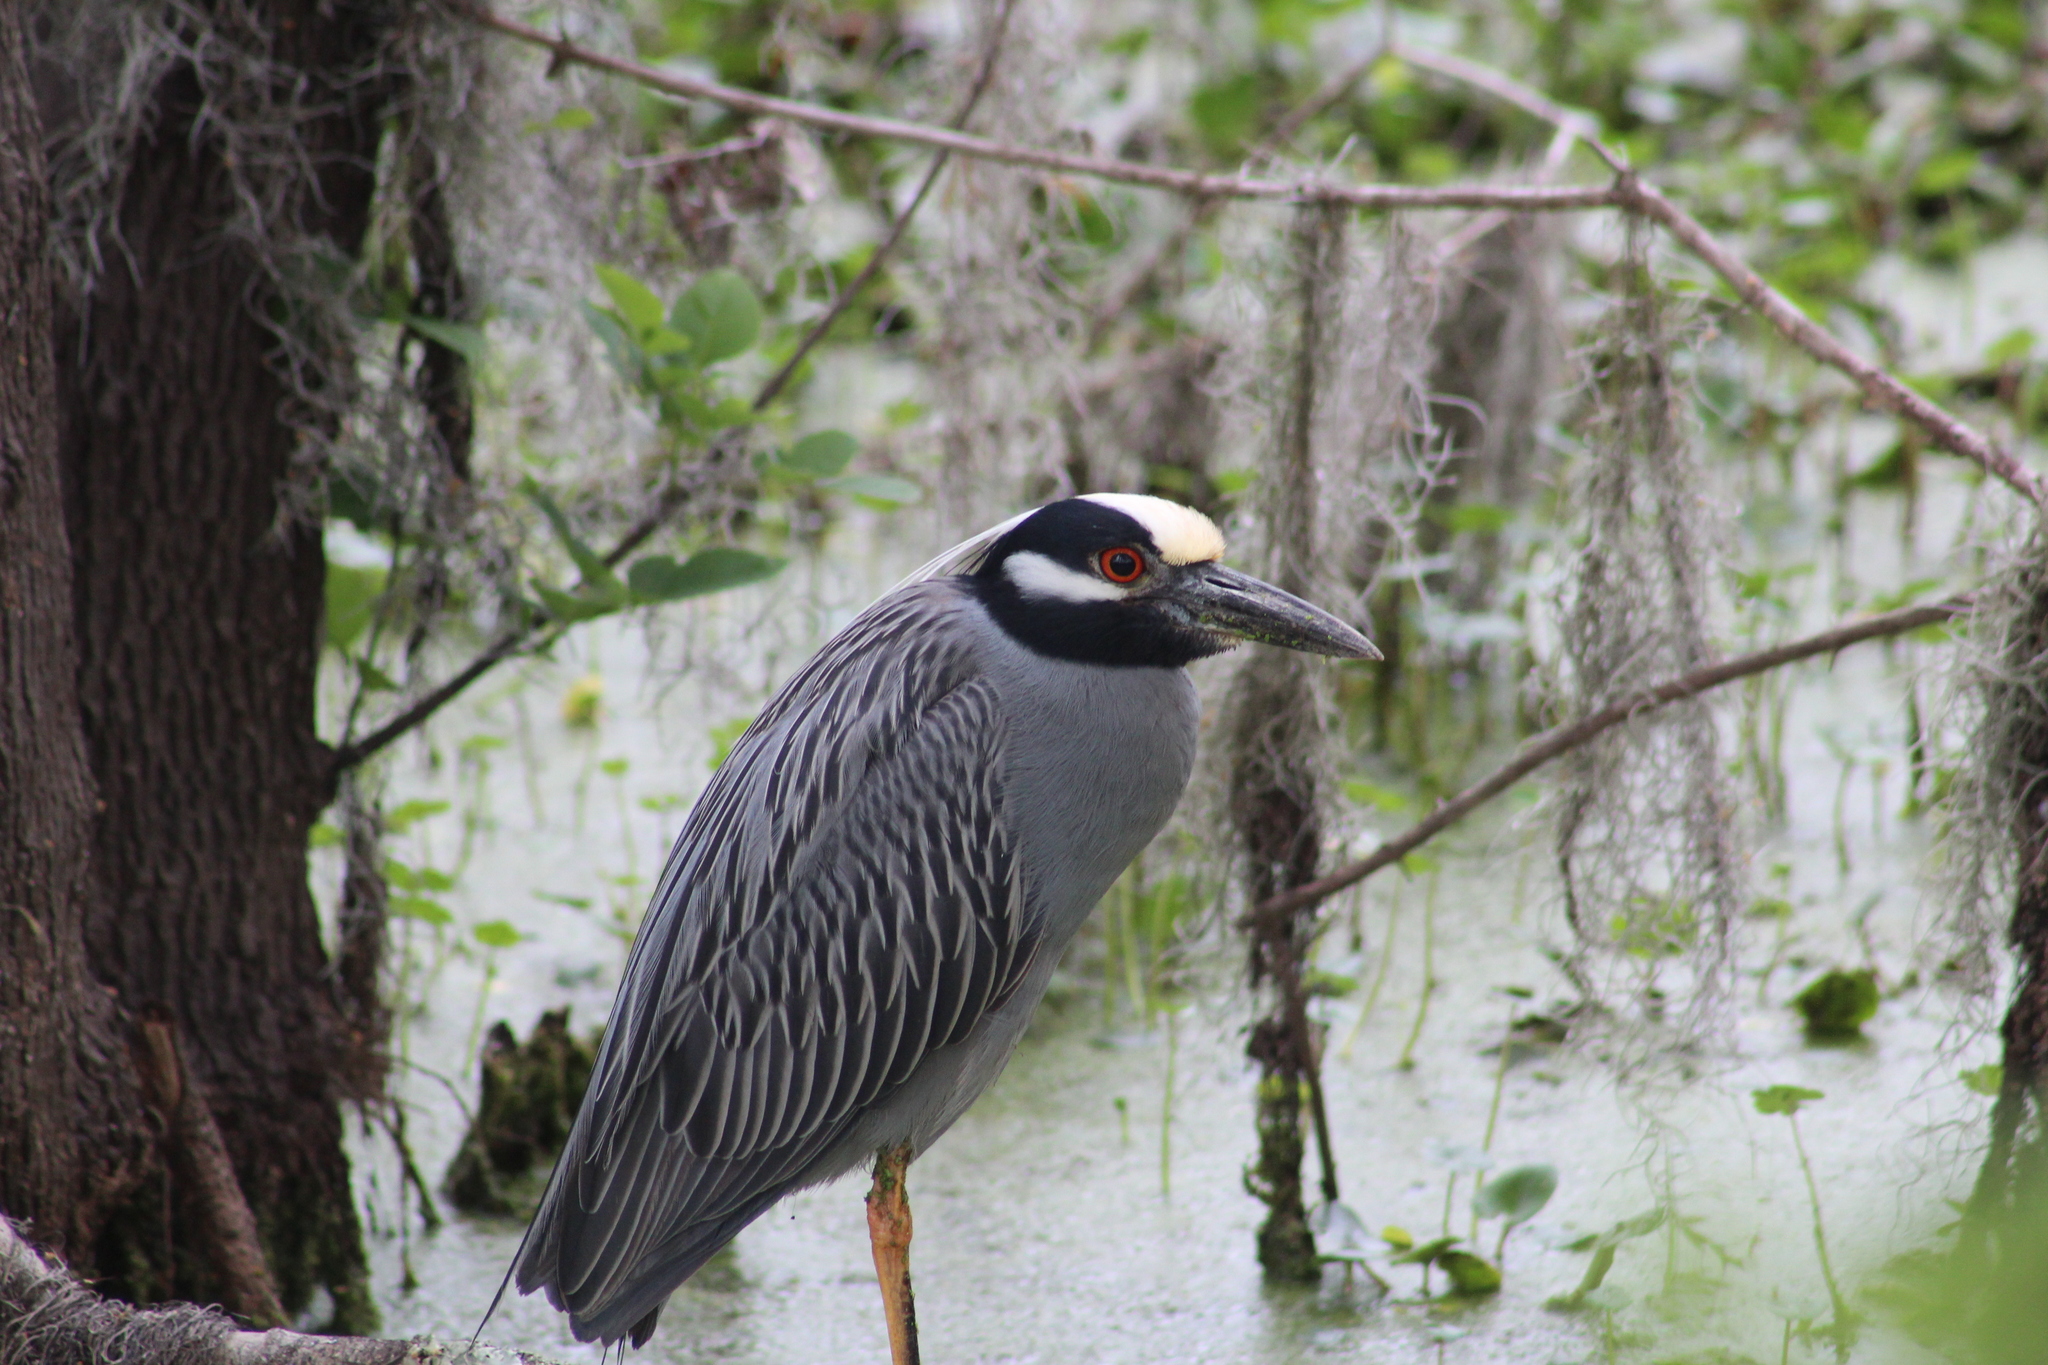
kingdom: Animalia
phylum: Chordata
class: Aves
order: Pelecaniformes
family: Ardeidae
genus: Nyctanassa
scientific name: Nyctanassa violacea
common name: Yellow-crowned night heron
